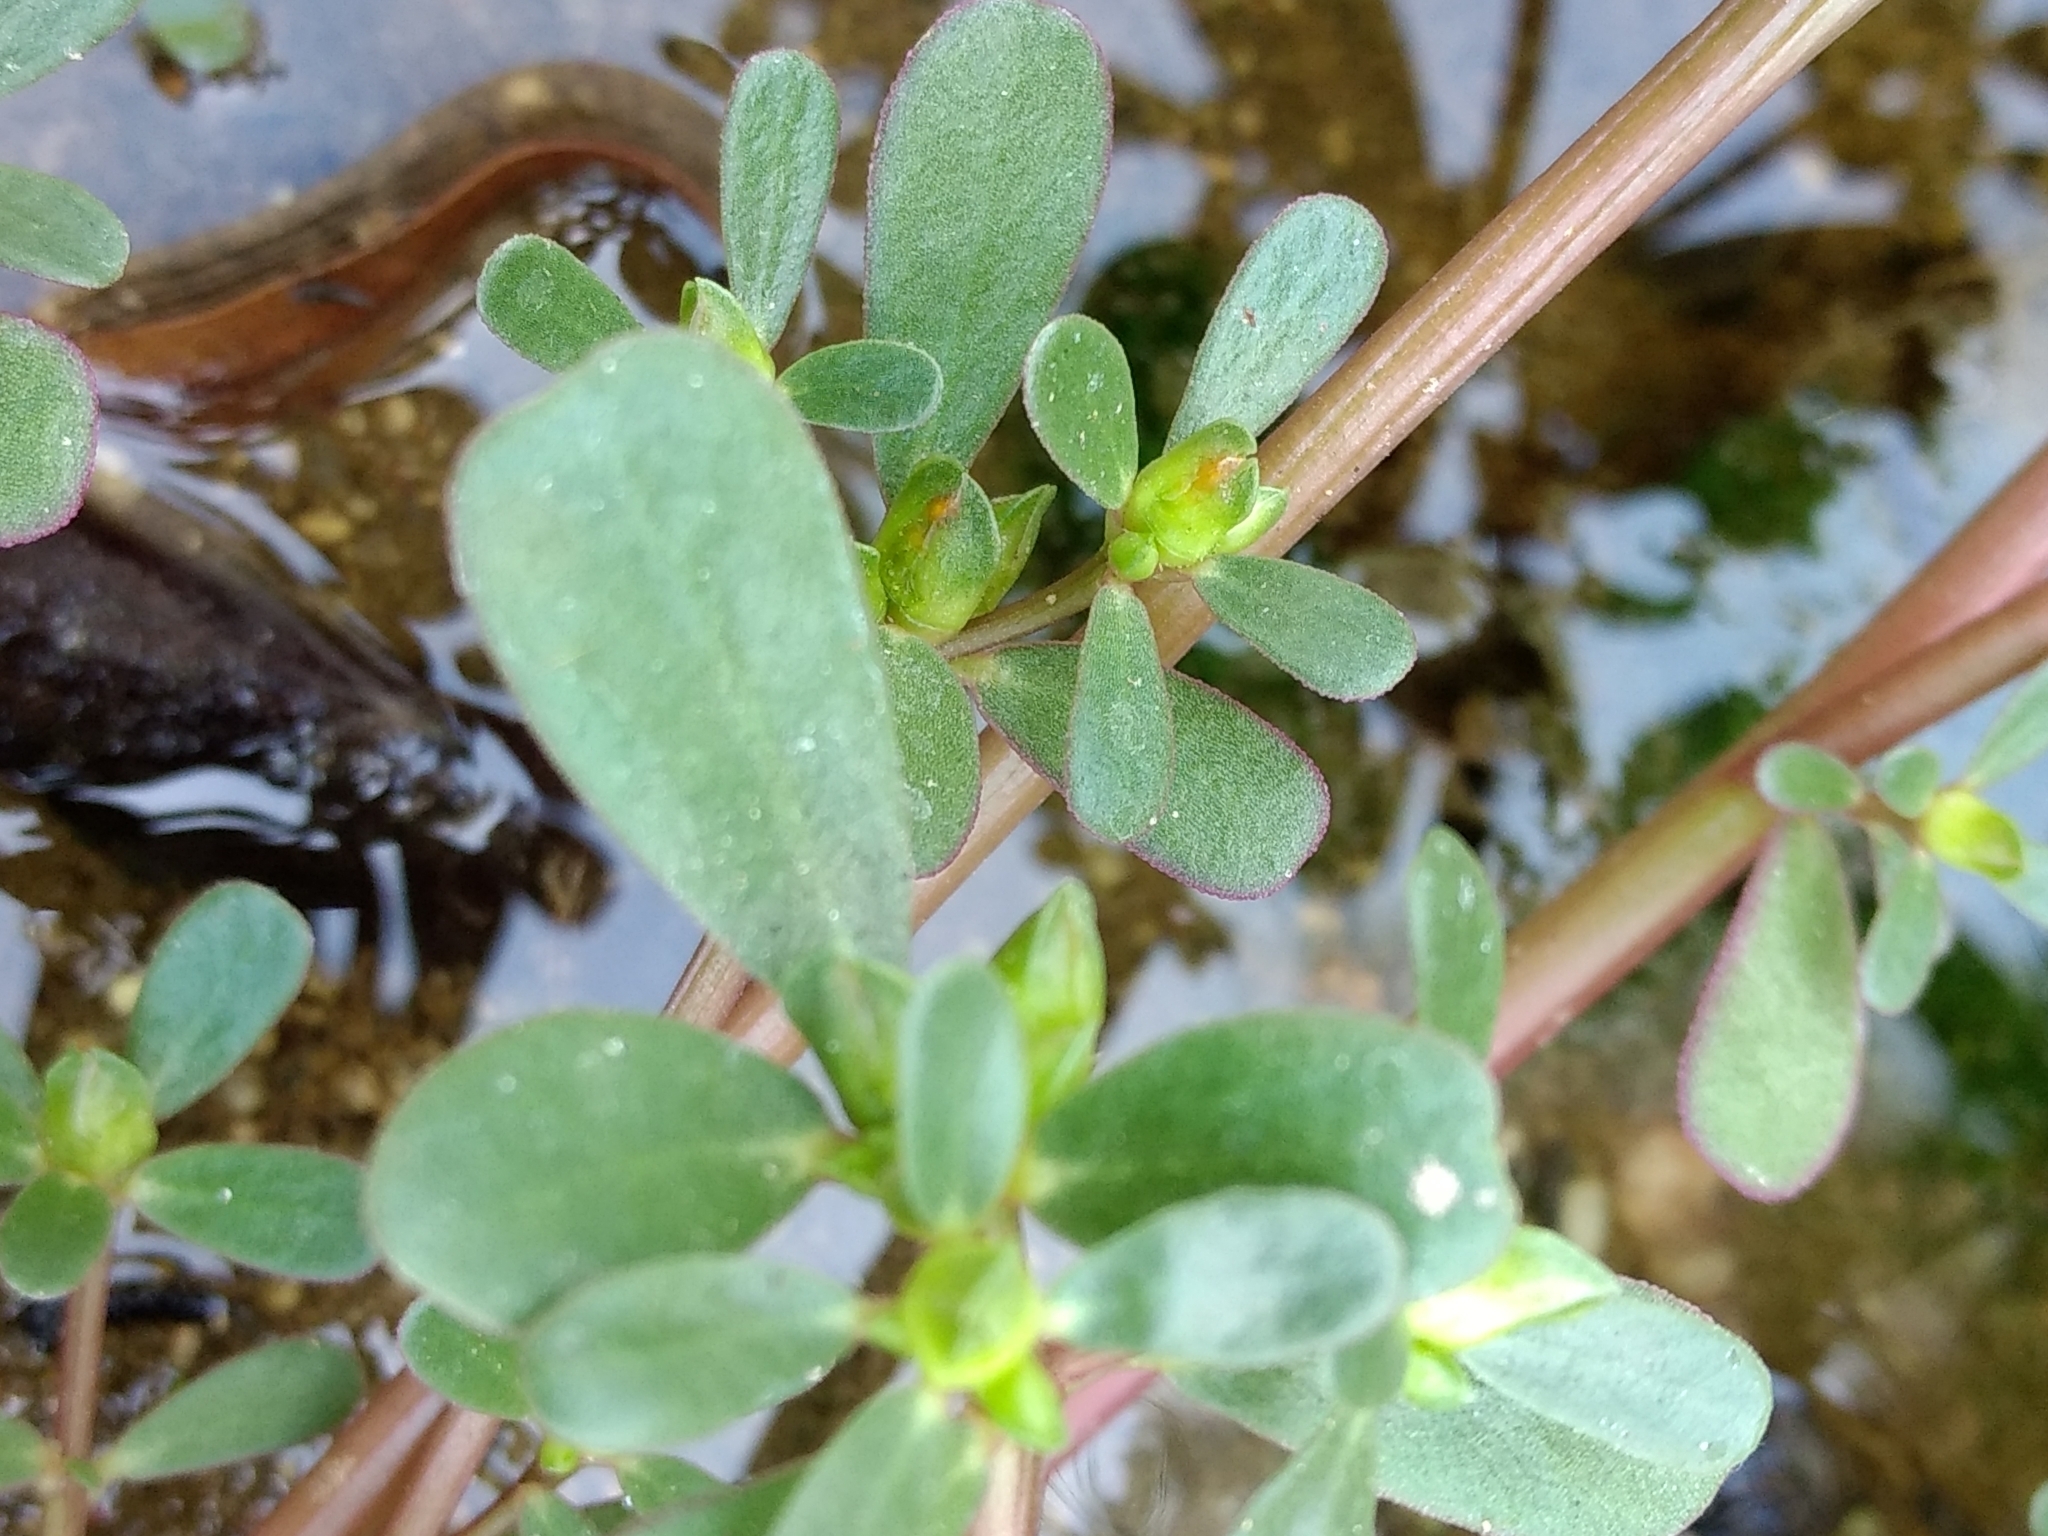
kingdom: Plantae
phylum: Tracheophyta
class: Magnoliopsida
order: Caryophyllales
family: Portulacaceae
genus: Portulaca
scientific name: Portulaca oleracea
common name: Common purslane
